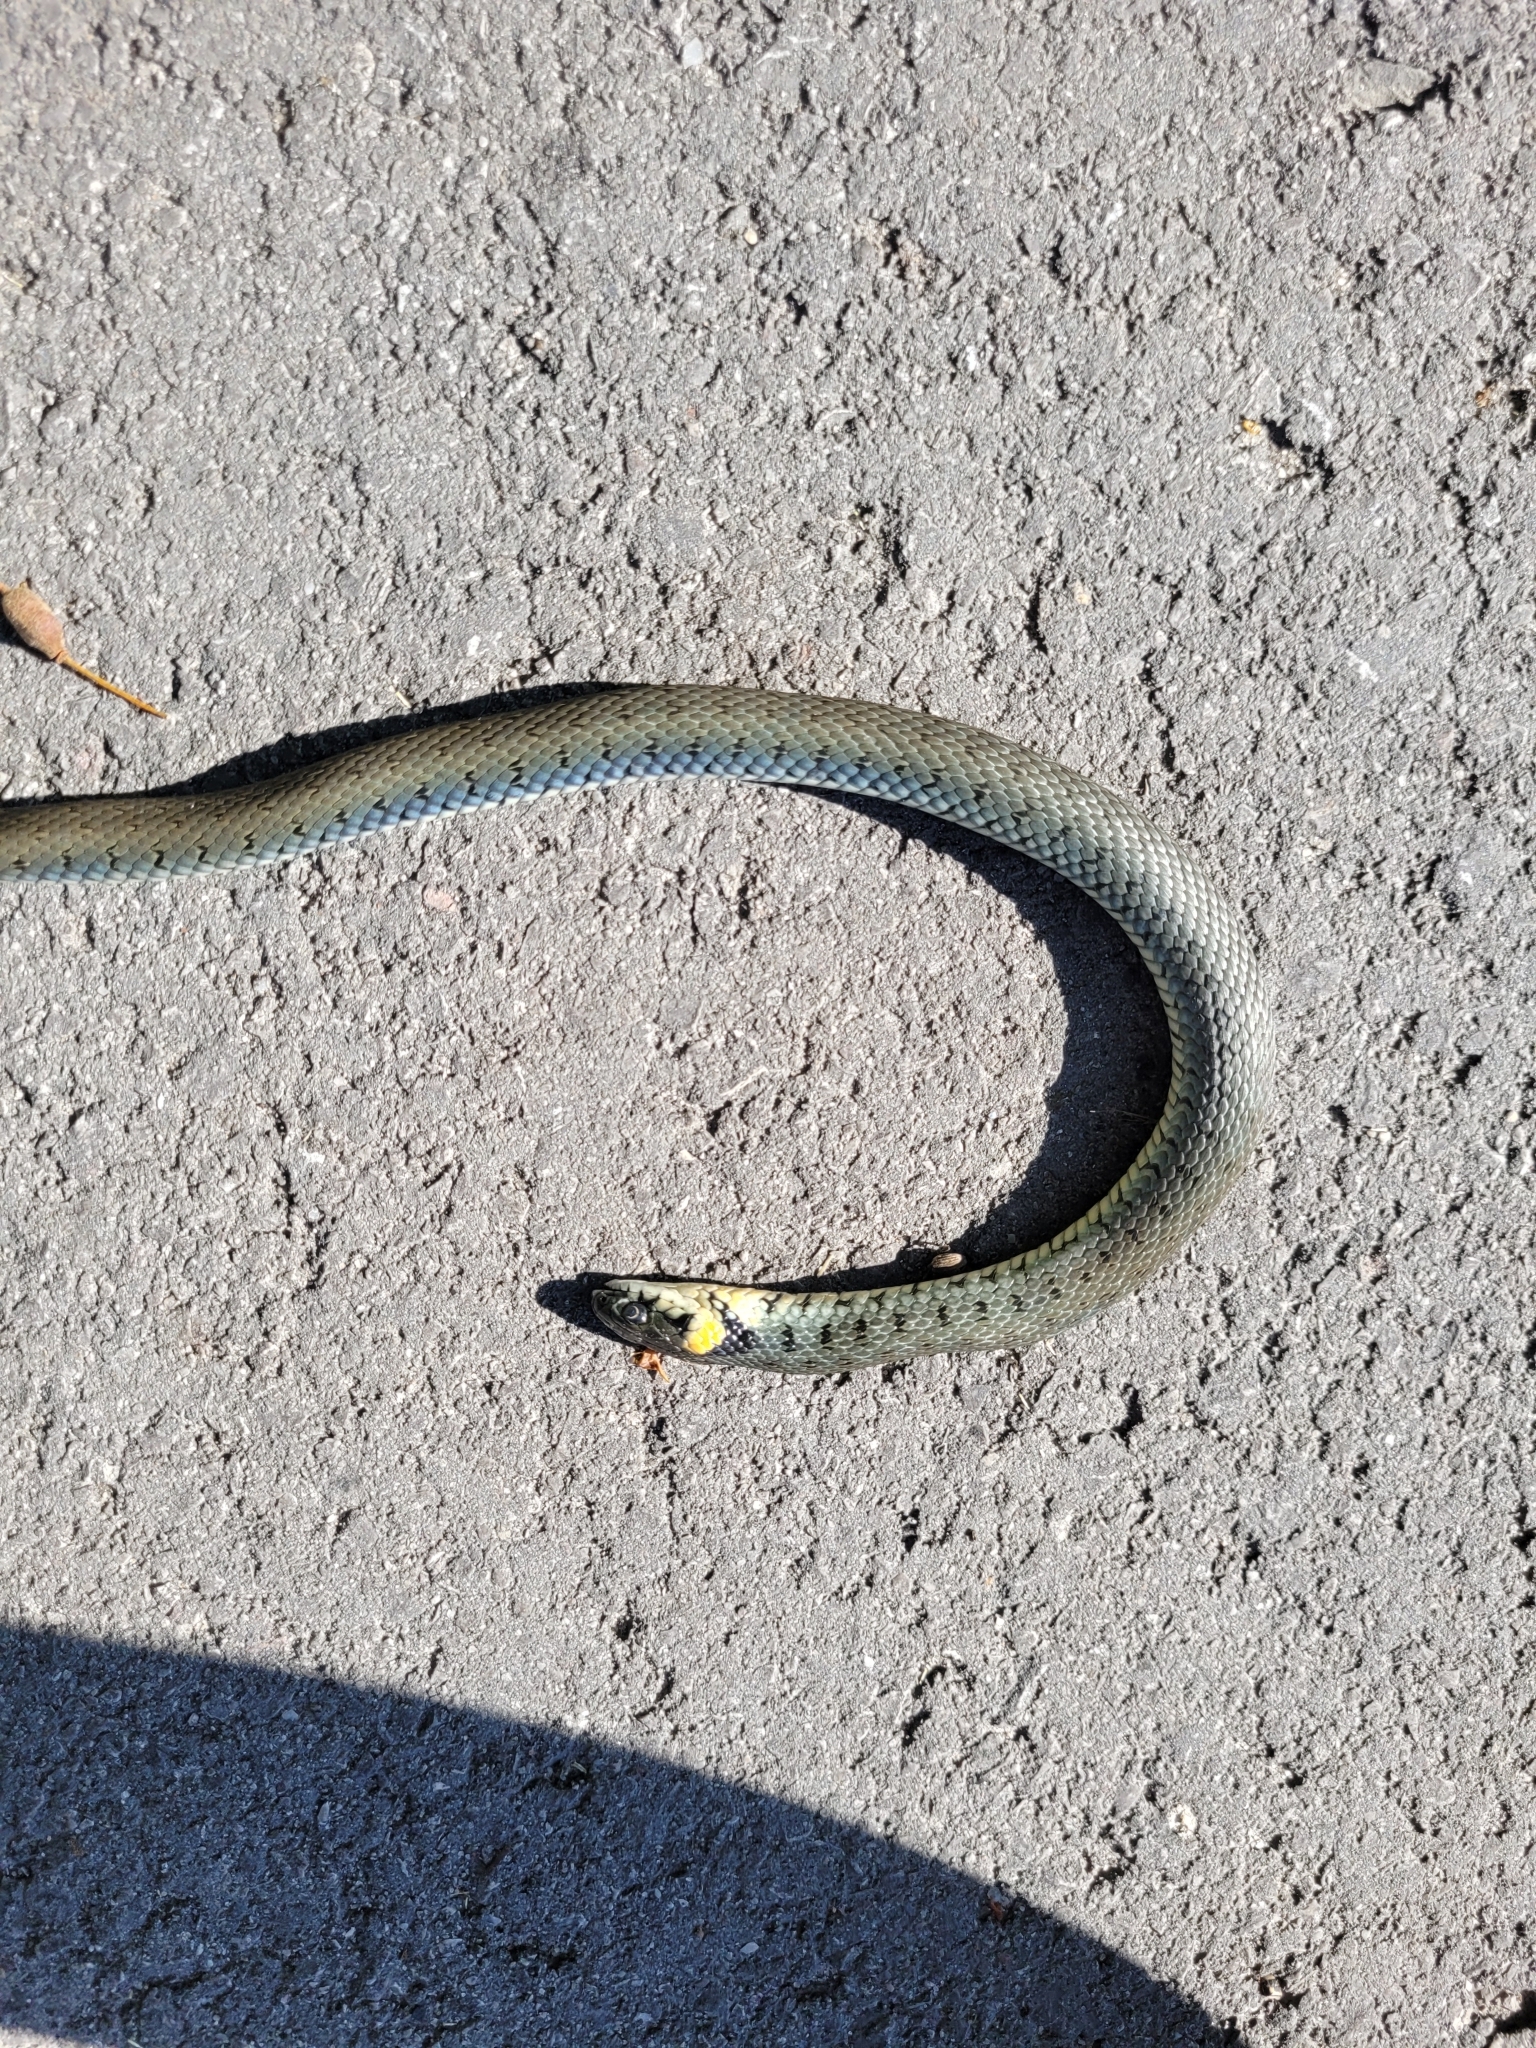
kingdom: Animalia
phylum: Chordata
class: Squamata
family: Colubridae
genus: Natrix
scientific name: Natrix natrix
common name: Grass snake
